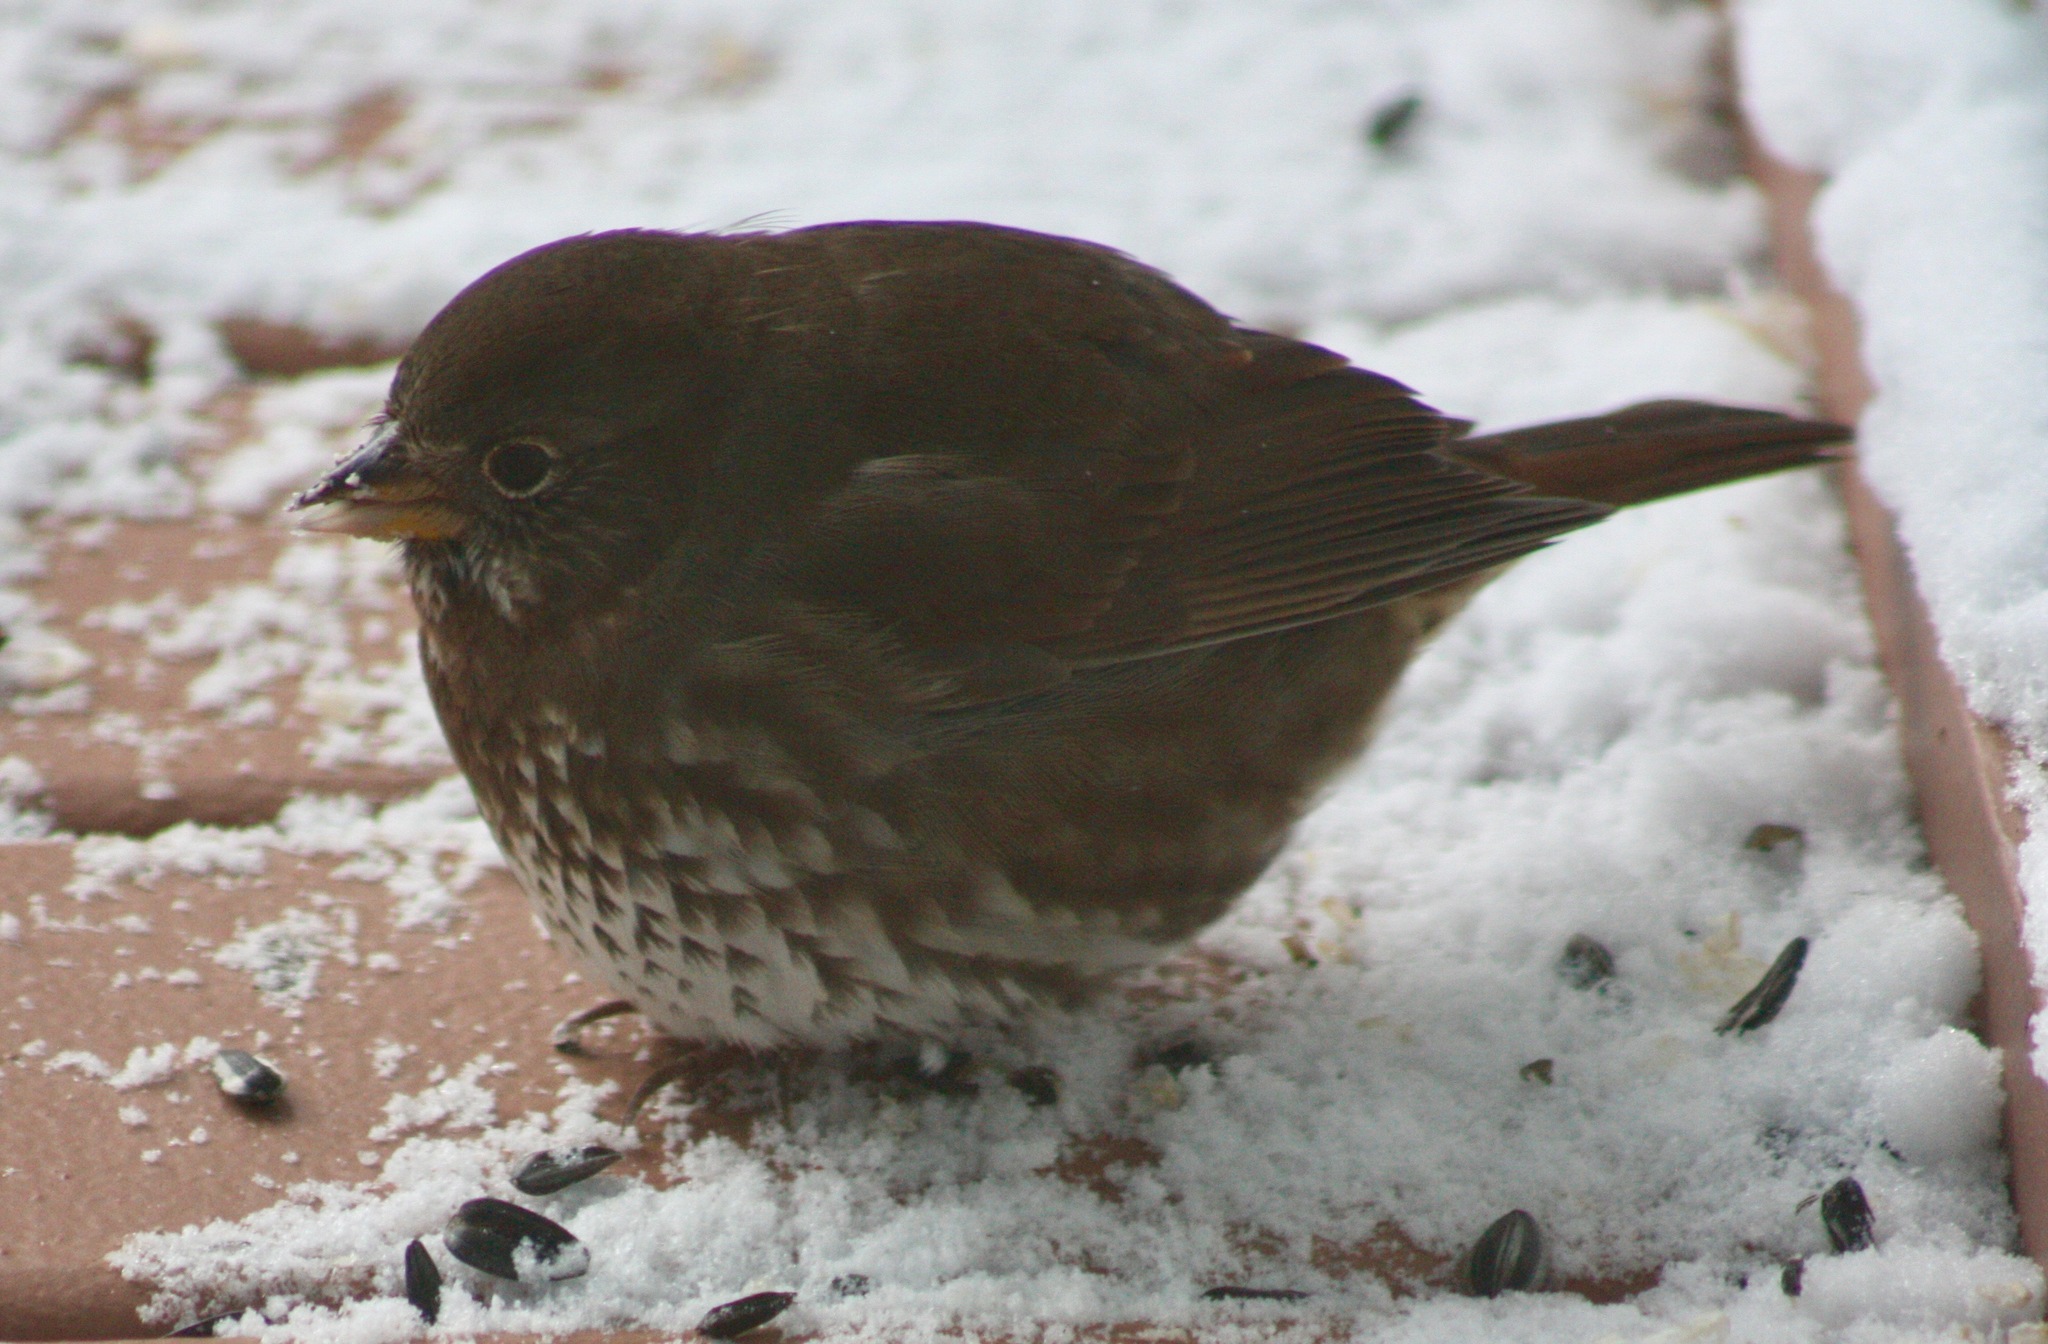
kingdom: Animalia
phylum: Chordata
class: Aves
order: Passeriformes
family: Passerellidae
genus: Passerella
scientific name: Passerella iliaca
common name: Fox sparrow
